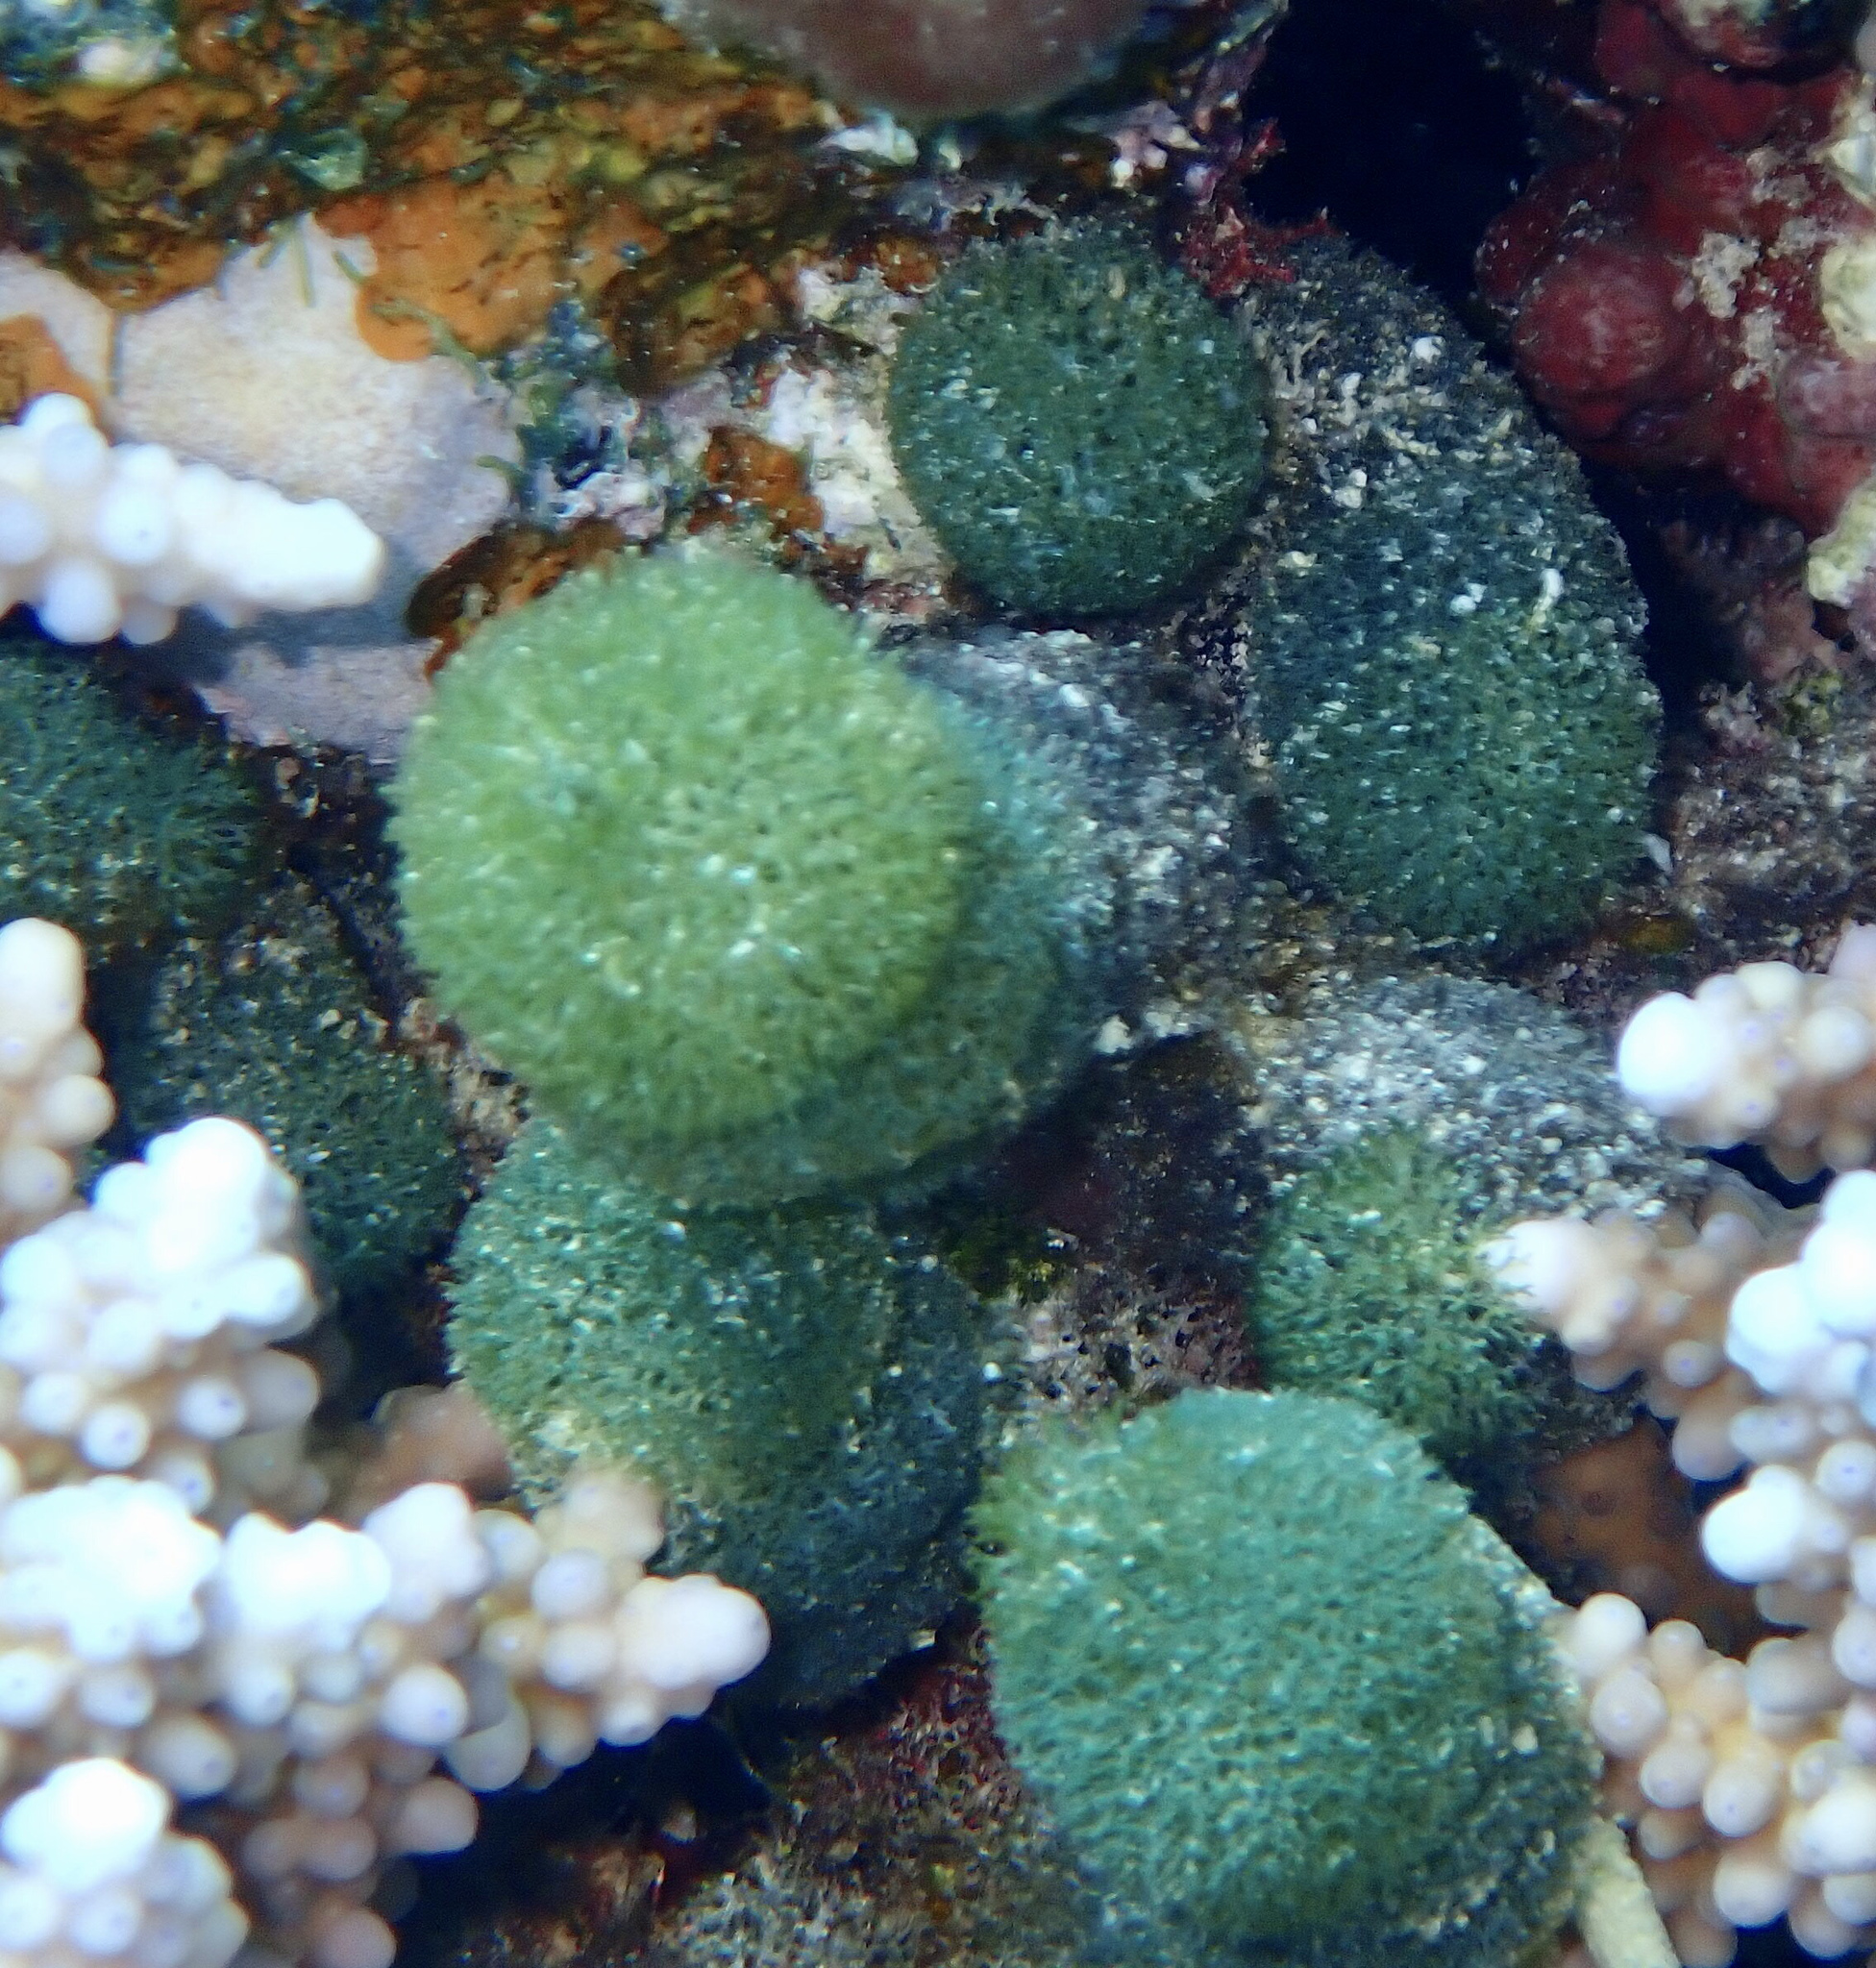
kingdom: Plantae
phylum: Chlorophyta
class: Ulvophyceae
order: Bryopsidales
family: Udoteaceae
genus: Tydemania
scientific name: Tydemania expeditionis
